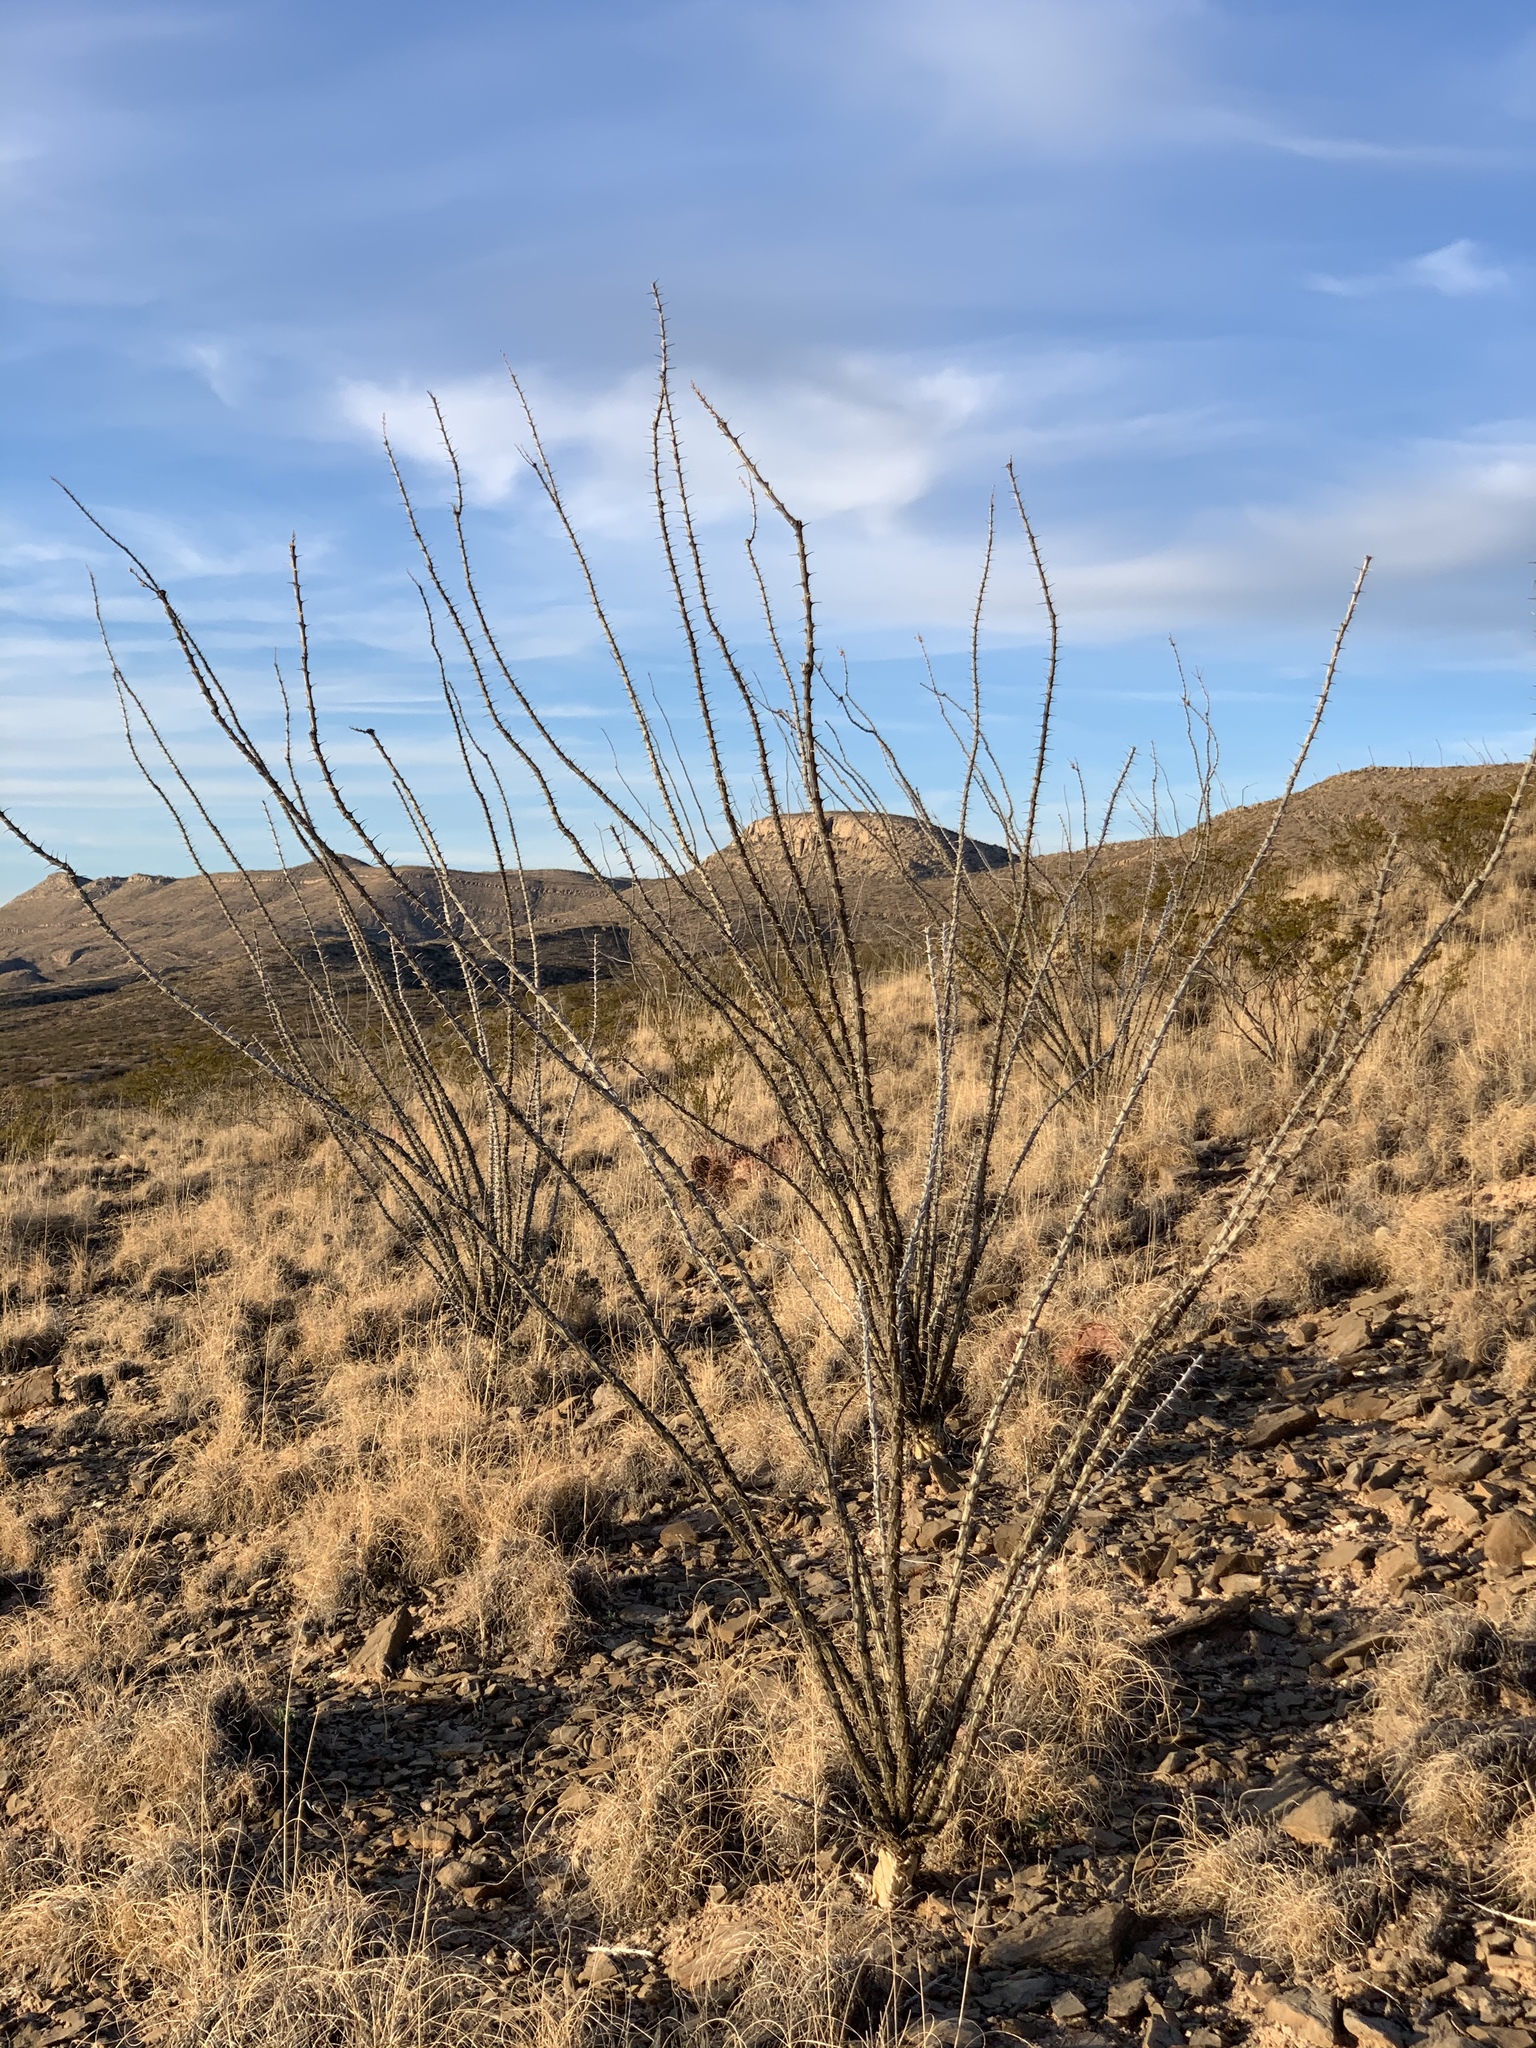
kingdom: Plantae
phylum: Tracheophyta
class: Magnoliopsida
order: Ericales
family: Fouquieriaceae
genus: Fouquieria
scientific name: Fouquieria splendens
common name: Vine-cactus
